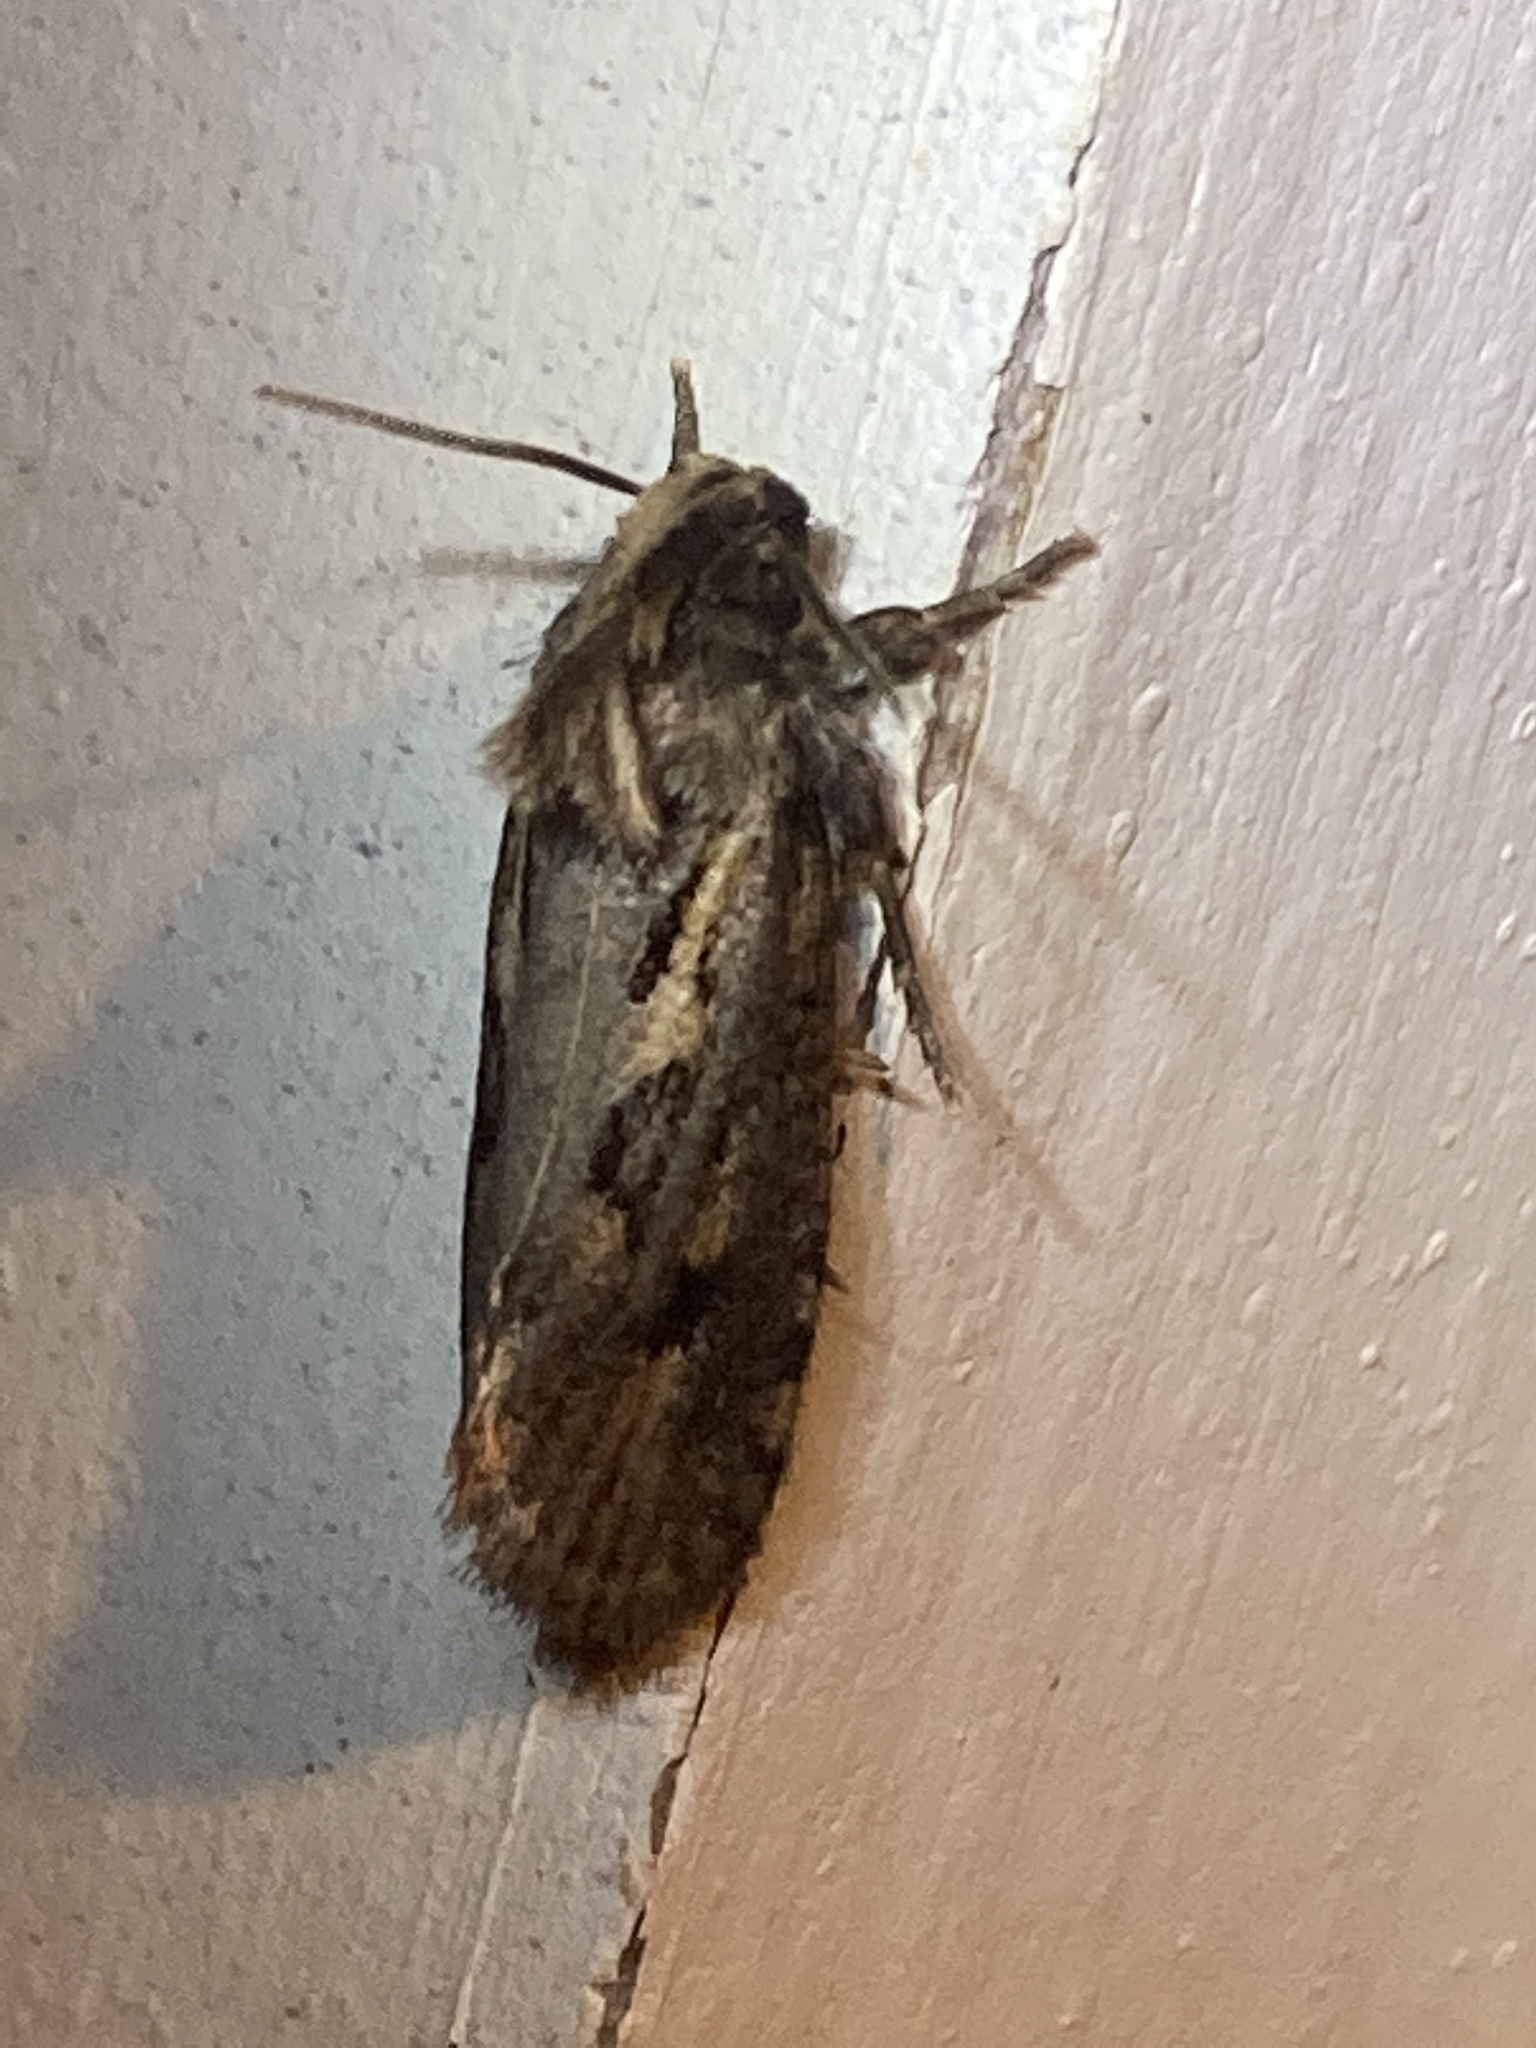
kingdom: Animalia
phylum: Arthropoda
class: Insecta
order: Lepidoptera
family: Tineidae
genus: Acrolophus
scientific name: Acrolophus popeanella
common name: Clemens' grass tubeworm moth
